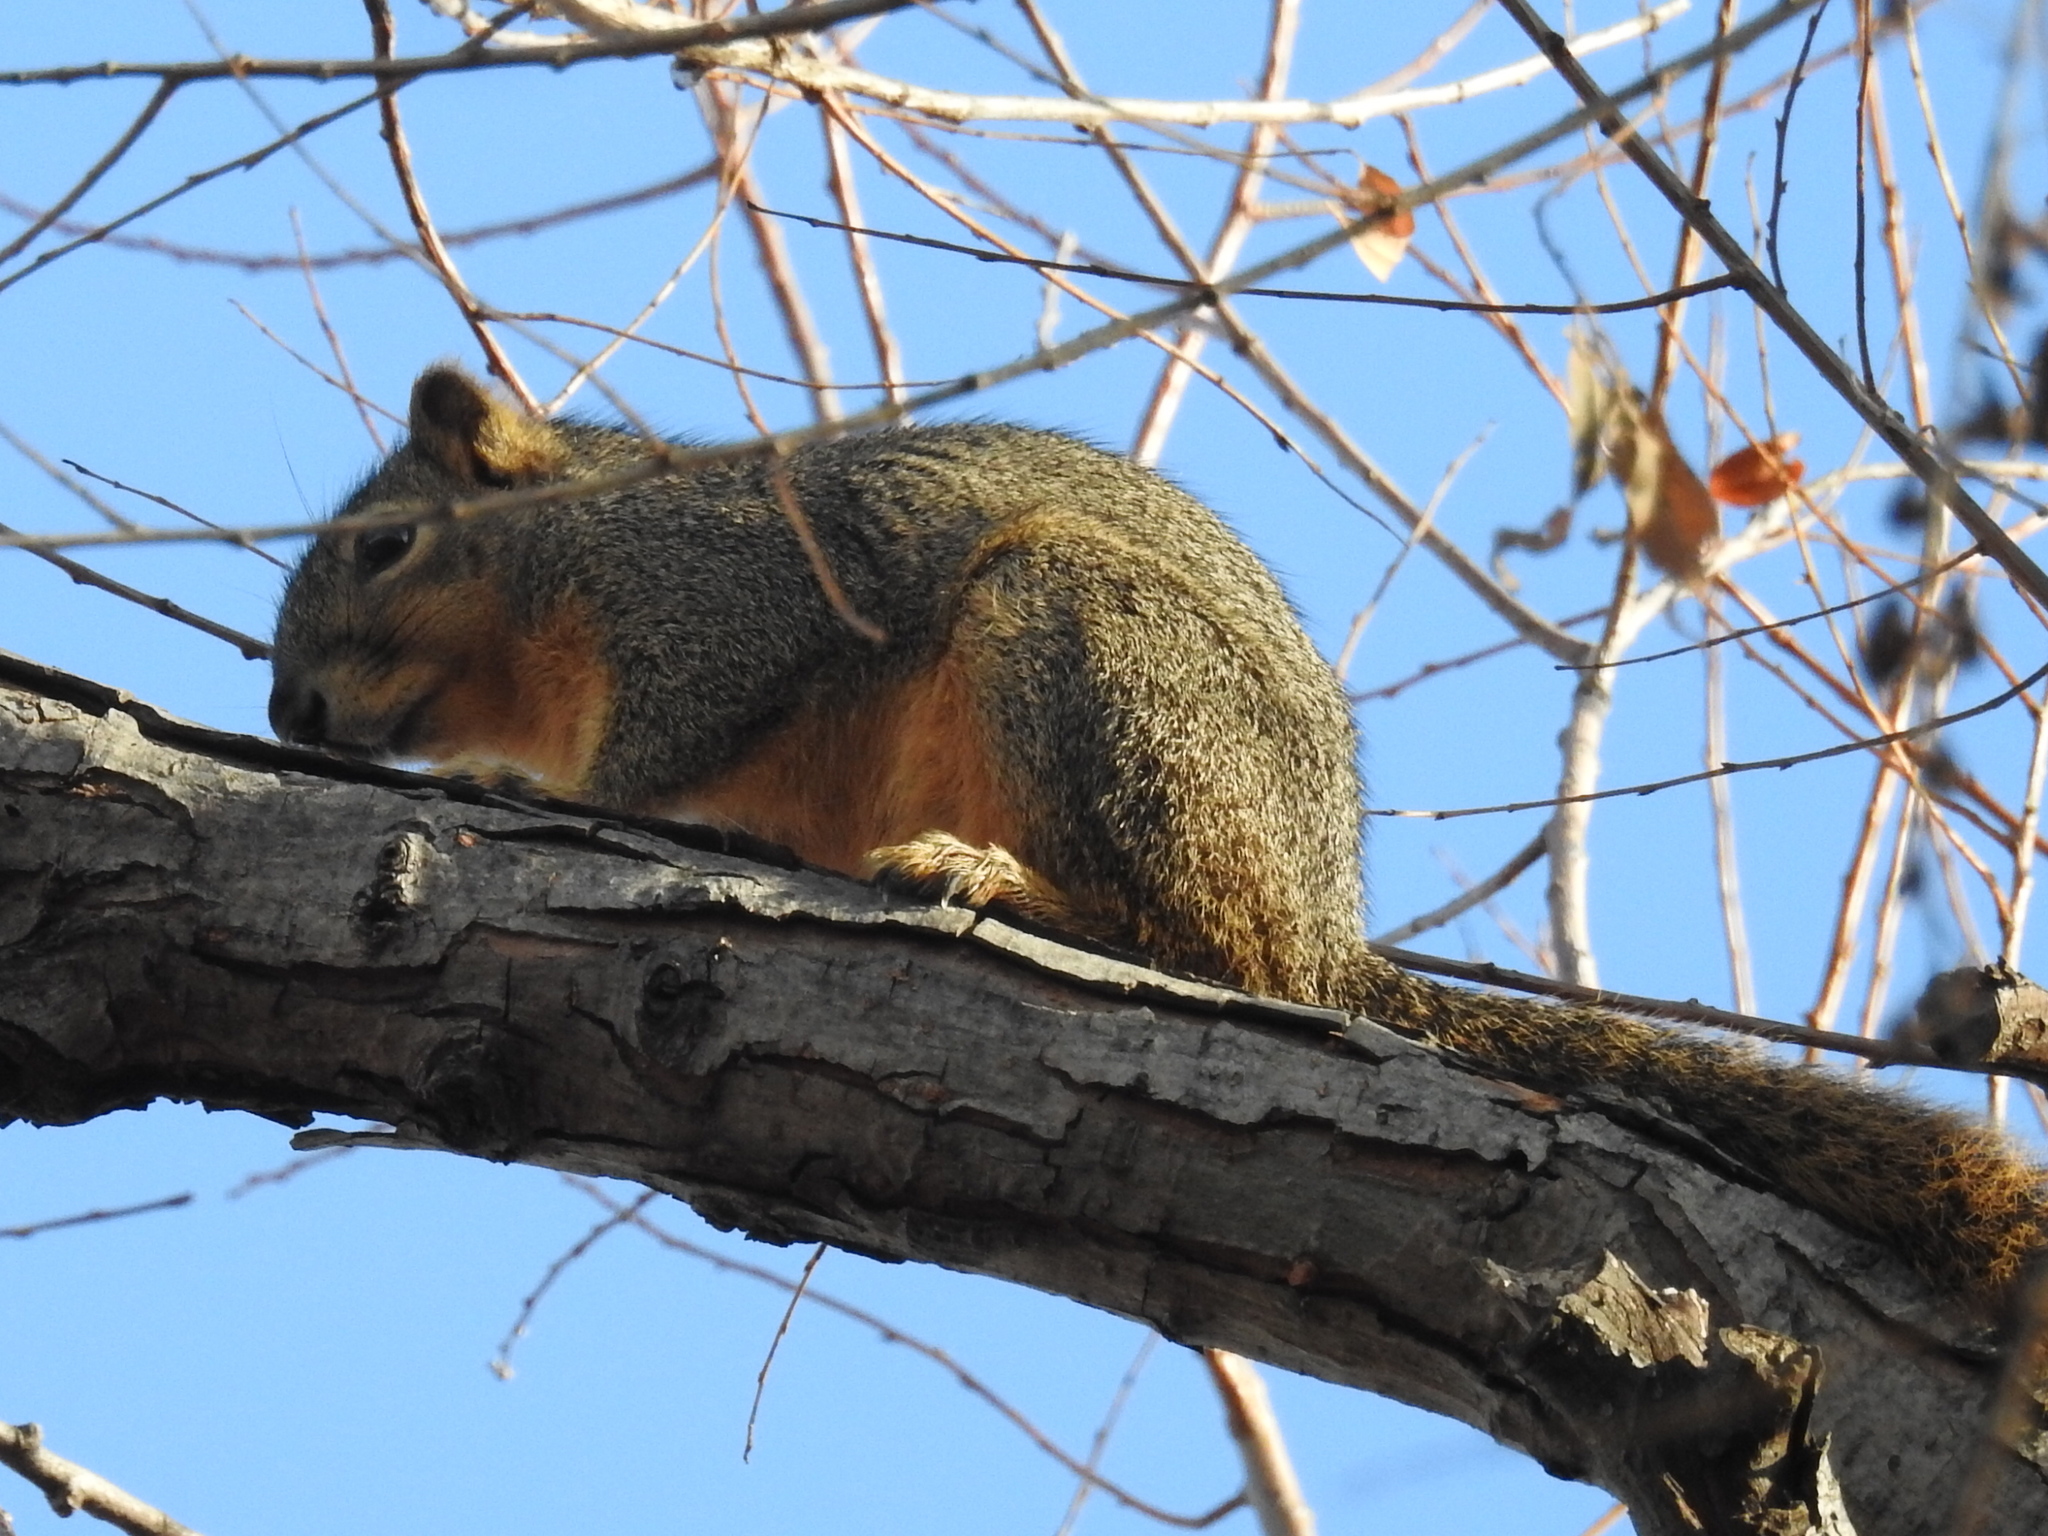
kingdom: Animalia
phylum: Chordata
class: Mammalia
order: Rodentia
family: Sciuridae
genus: Sciurus
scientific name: Sciurus niger
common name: Fox squirrel
